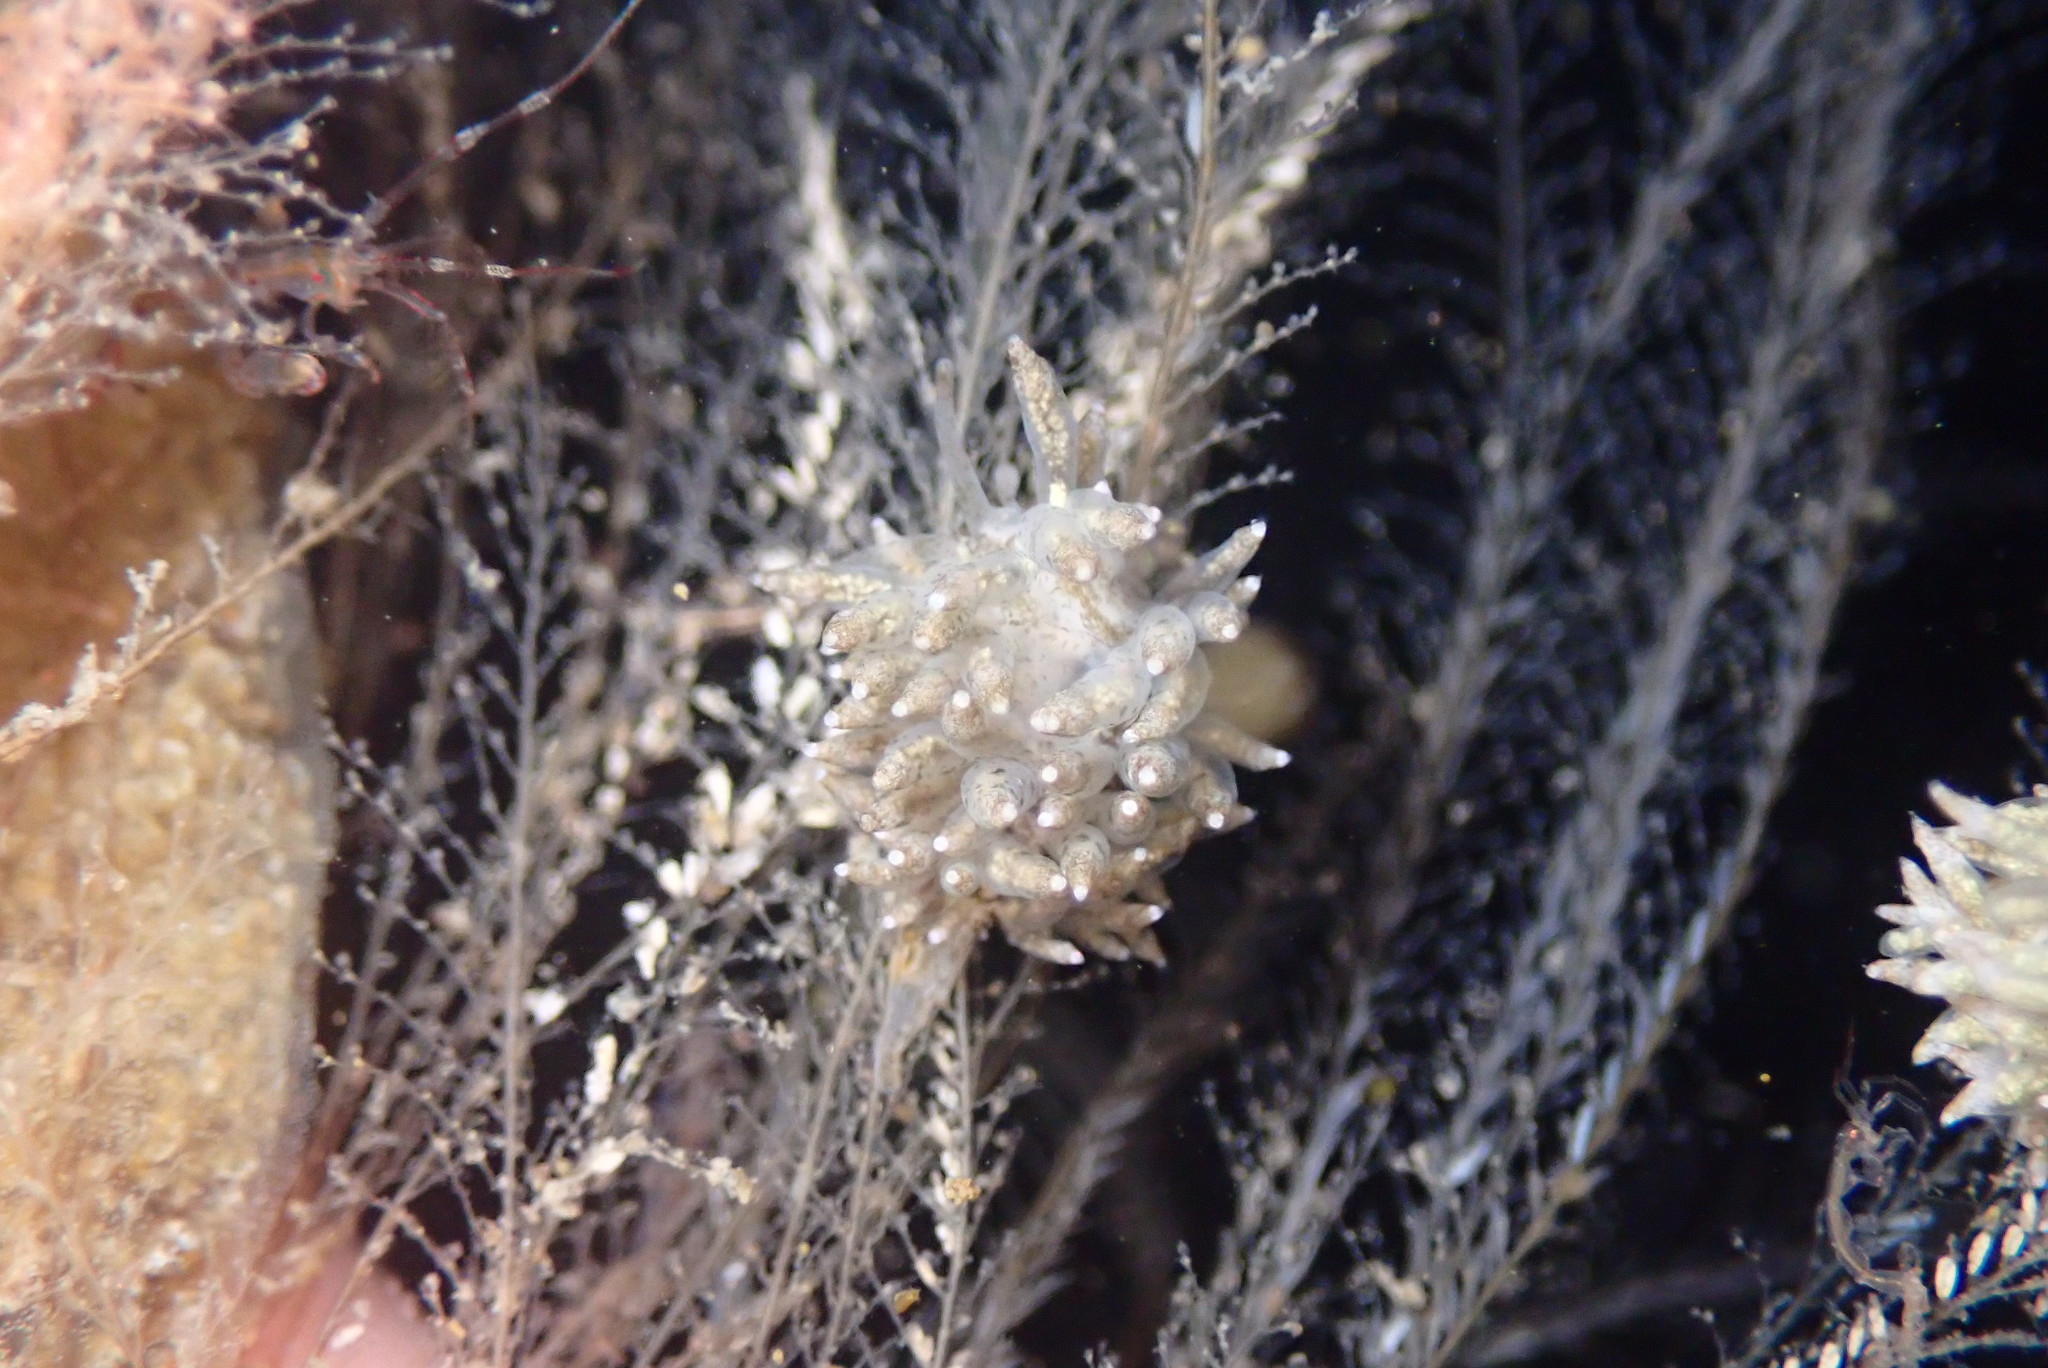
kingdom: Animalia
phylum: Mollusca
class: Gastropoda
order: Nudibranchia
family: Eubranchidae
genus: Eubranchus
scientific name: Eubranchus rustyus
